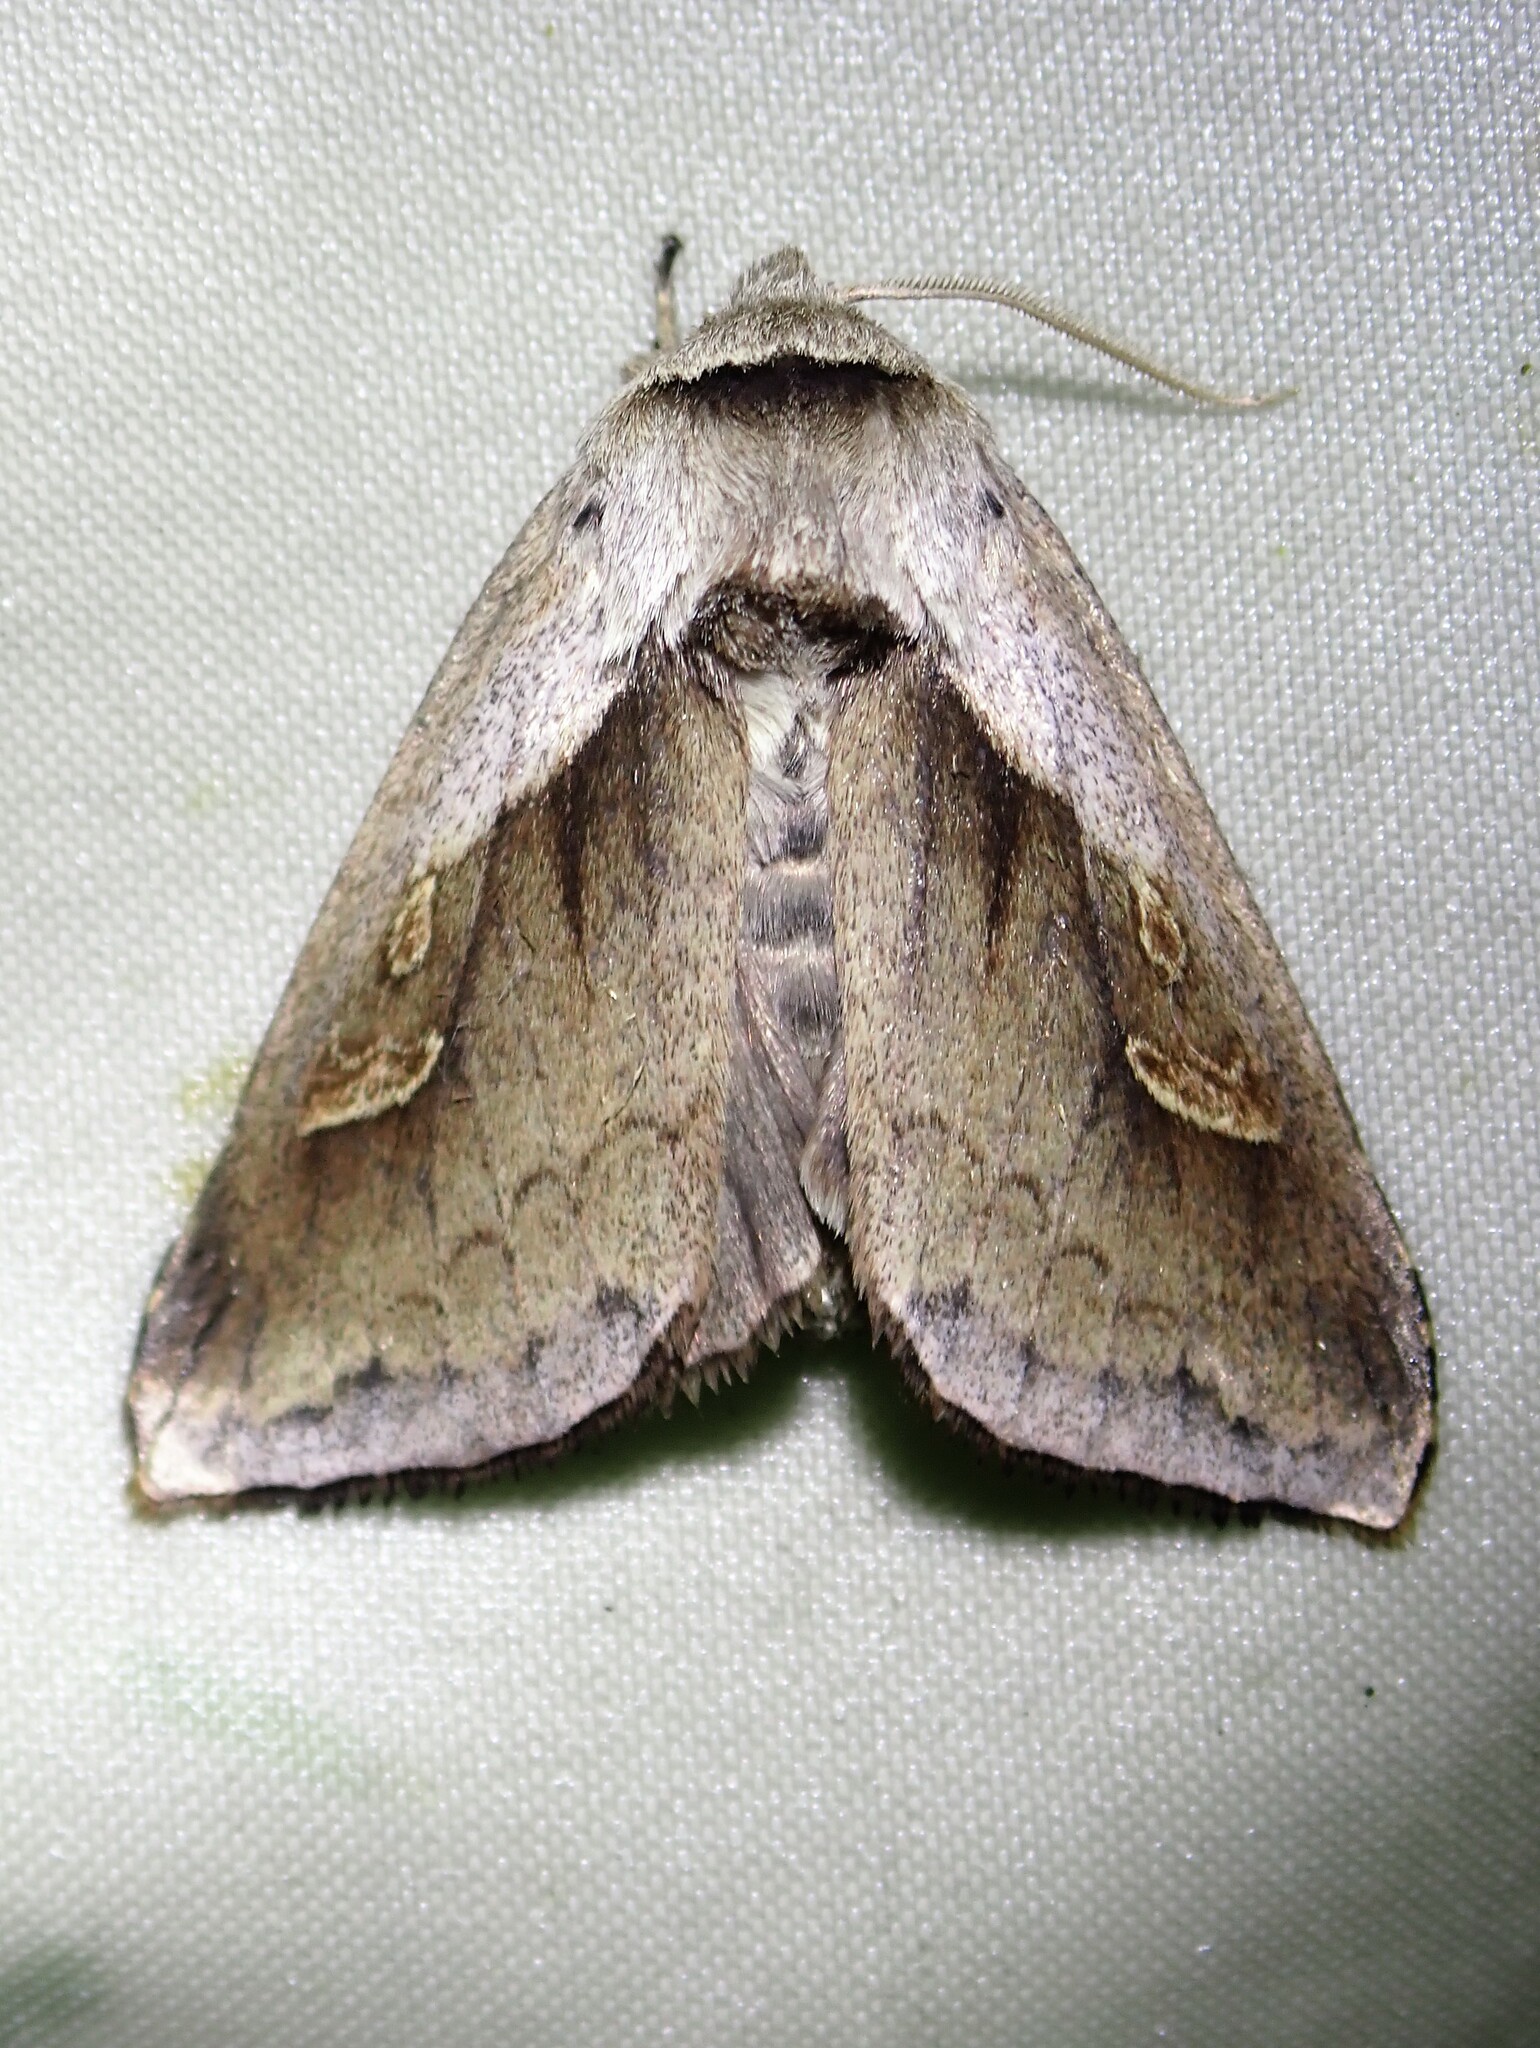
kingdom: Animalia
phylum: Arthropoda
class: Insecta
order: Lepidoptera
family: Noctuidae
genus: Bellura
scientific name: Bellura obliqua
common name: Cattail borer moth
